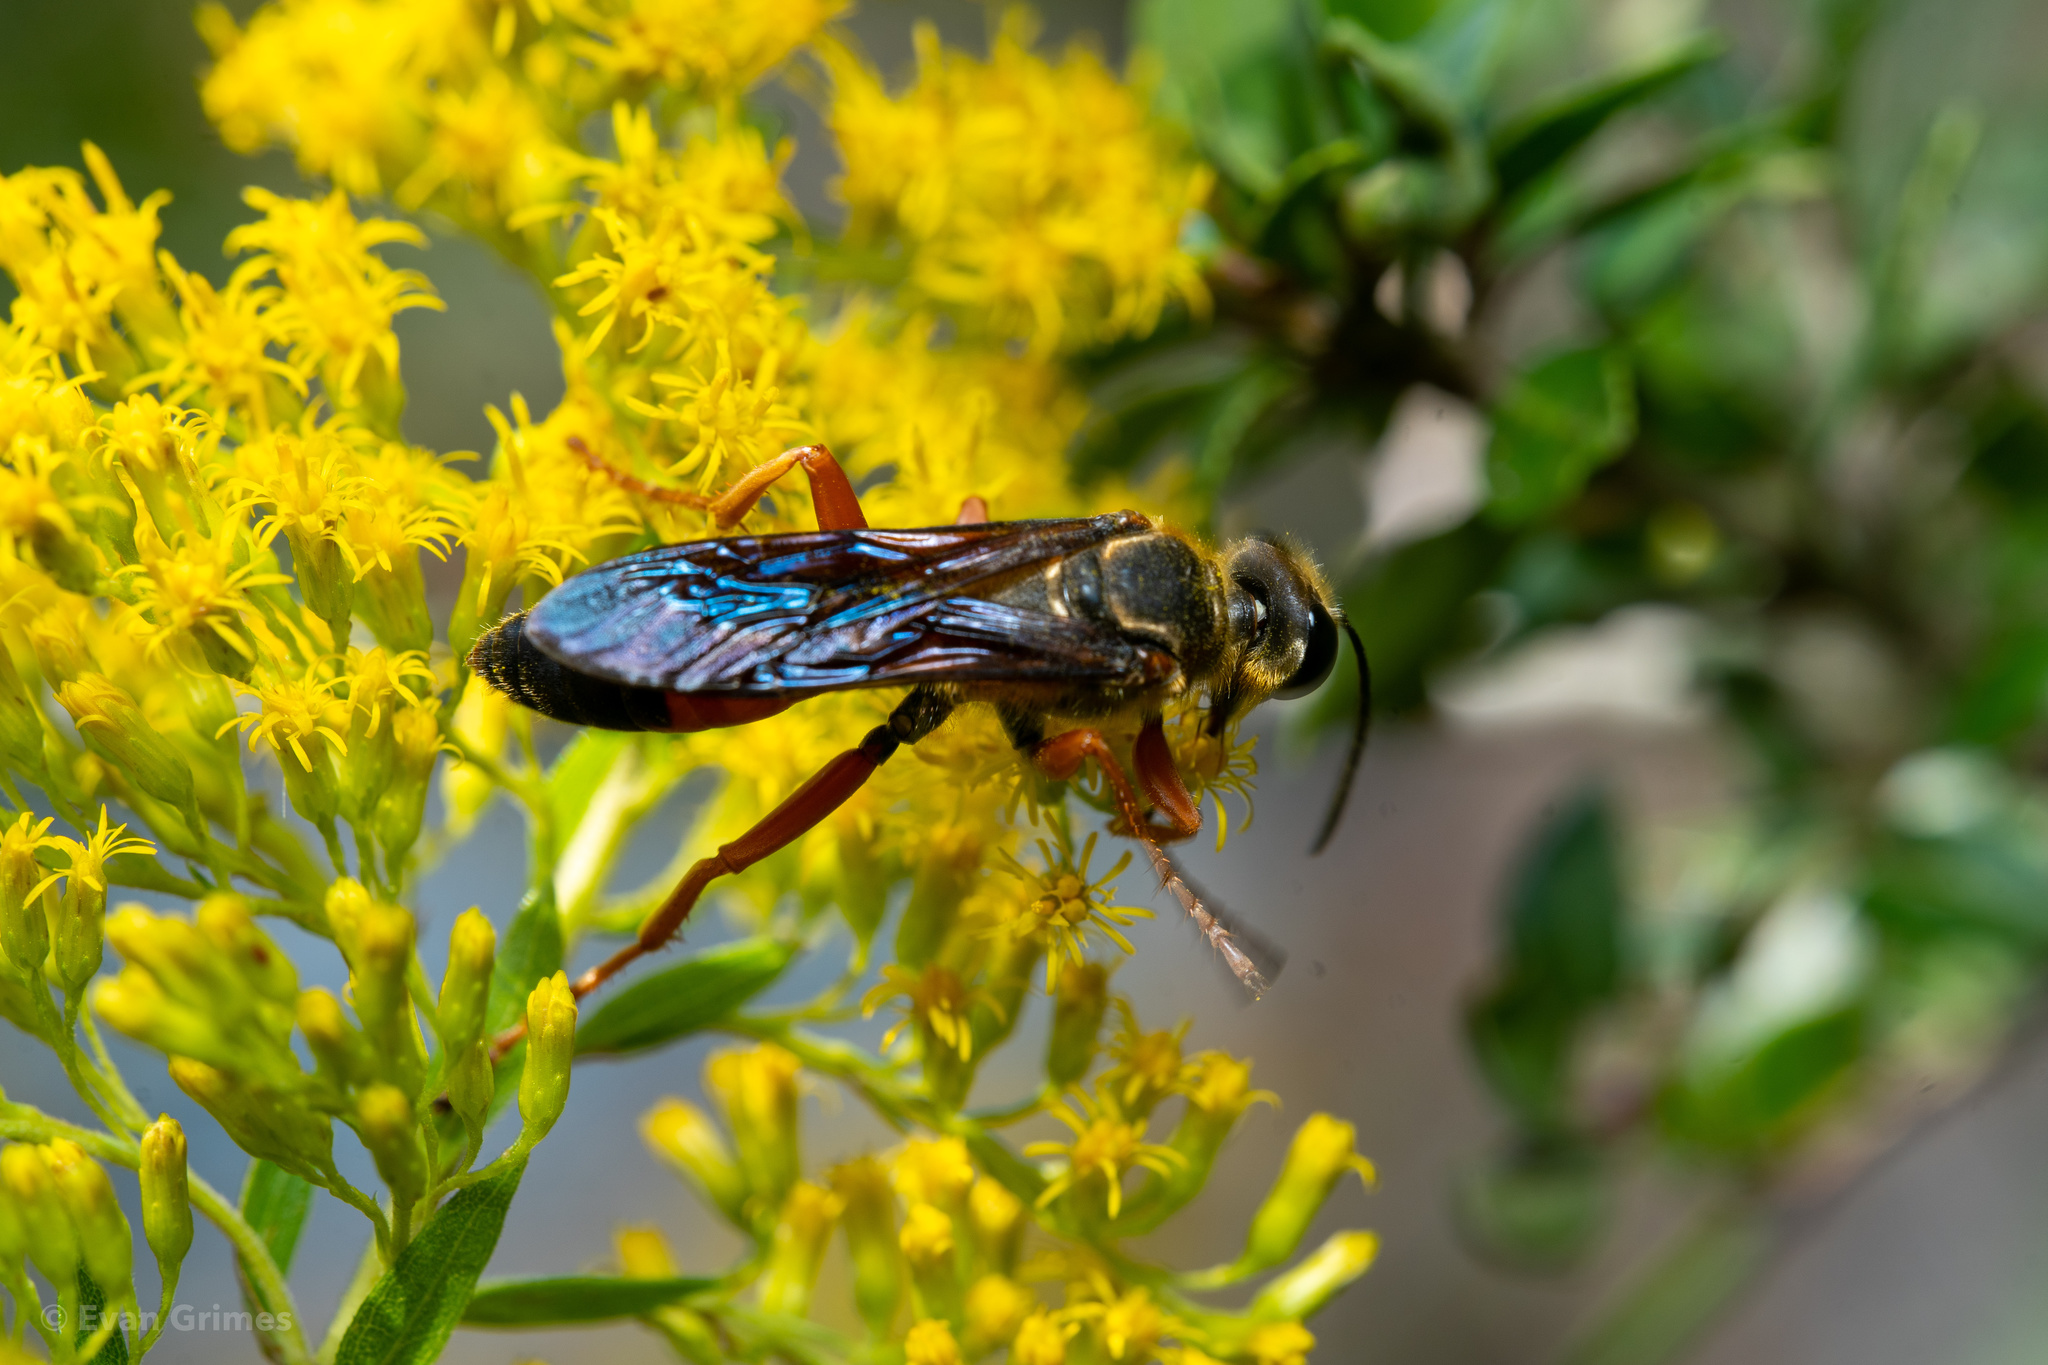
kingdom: Animalia
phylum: Arthropoda
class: Insecta
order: Hymenoptera
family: Sphecidae
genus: Sphex
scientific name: Sphex ichneumoneus
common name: Great golden digger wasp
